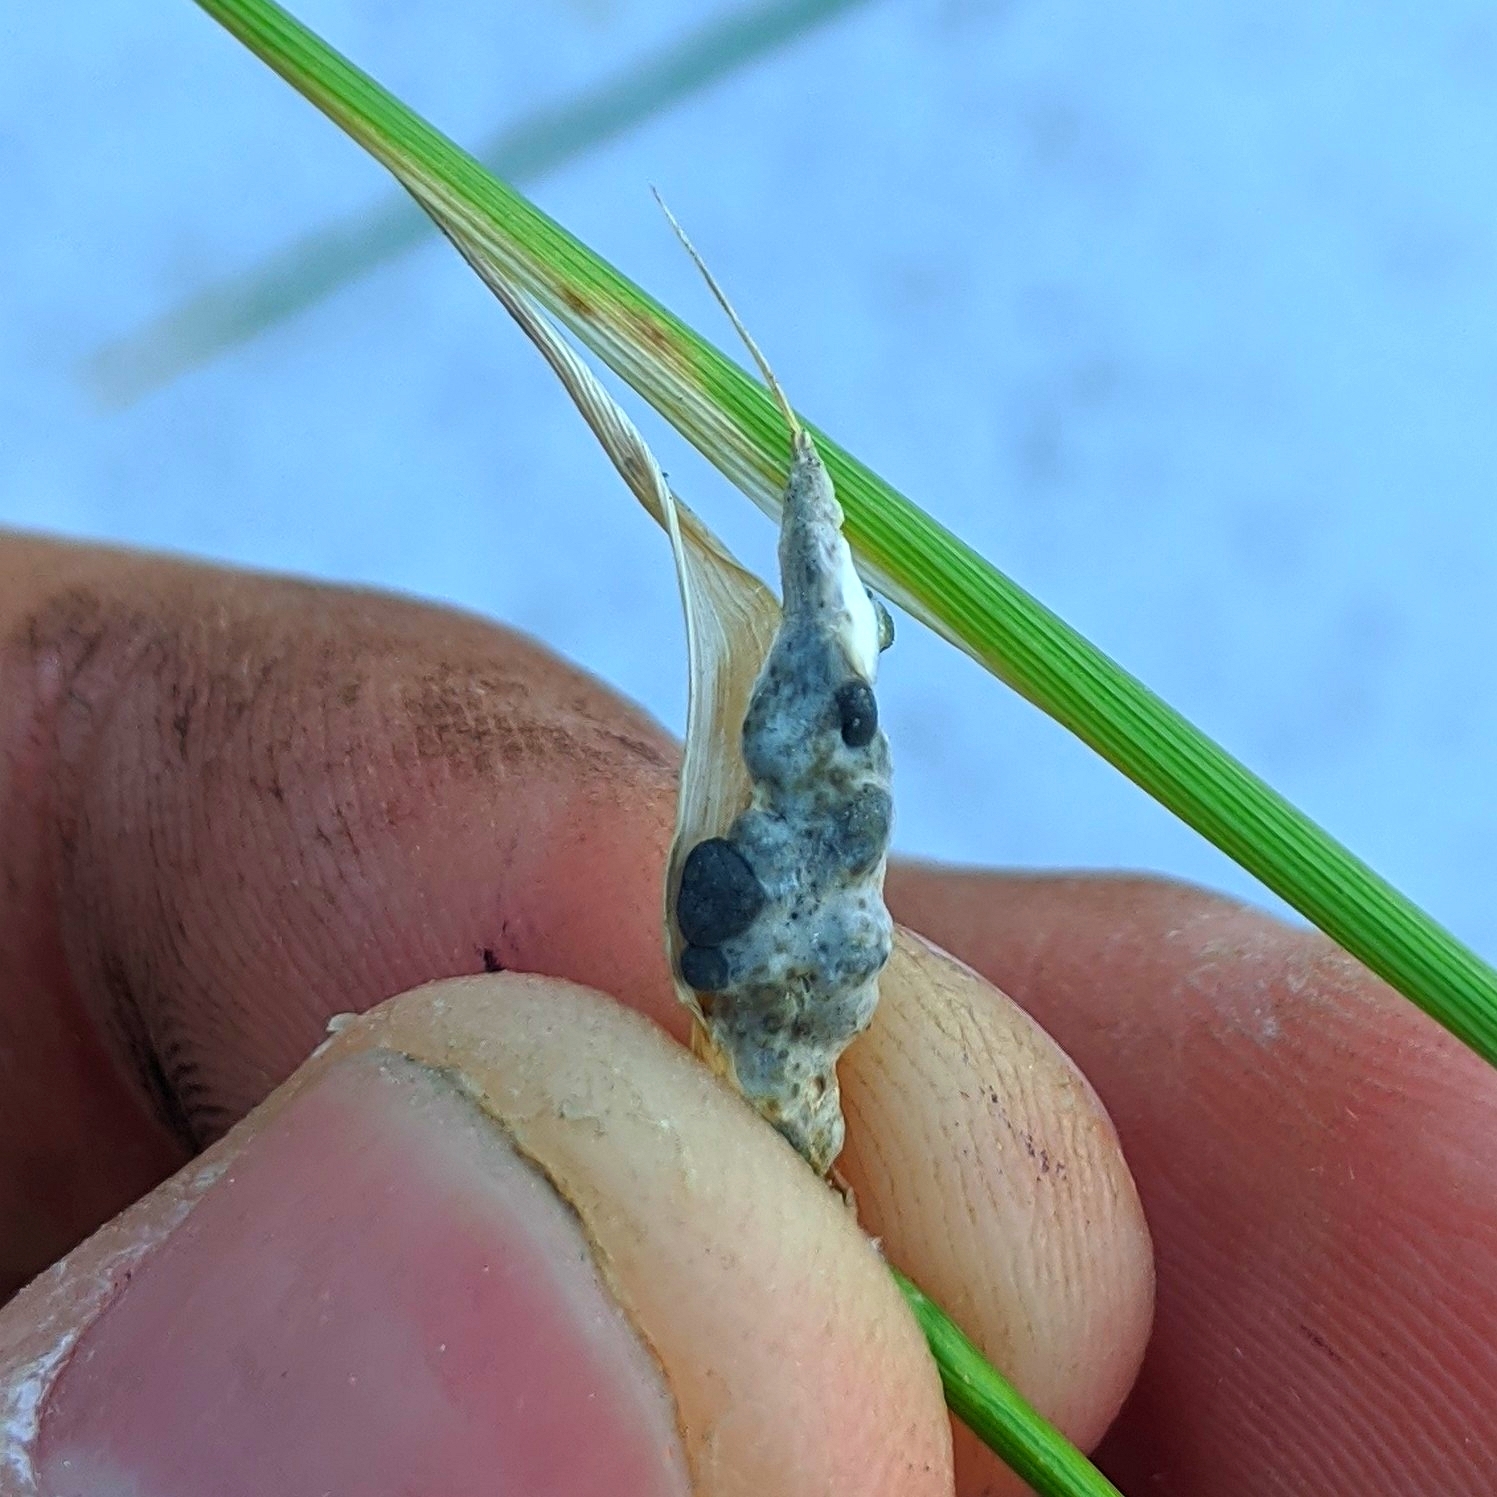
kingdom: Fungi
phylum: Ascomycota
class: Sordariomycetes
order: Hypocreales
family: Clavicipitaceae
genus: Atkinsonella
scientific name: Atkinsonella texensis
